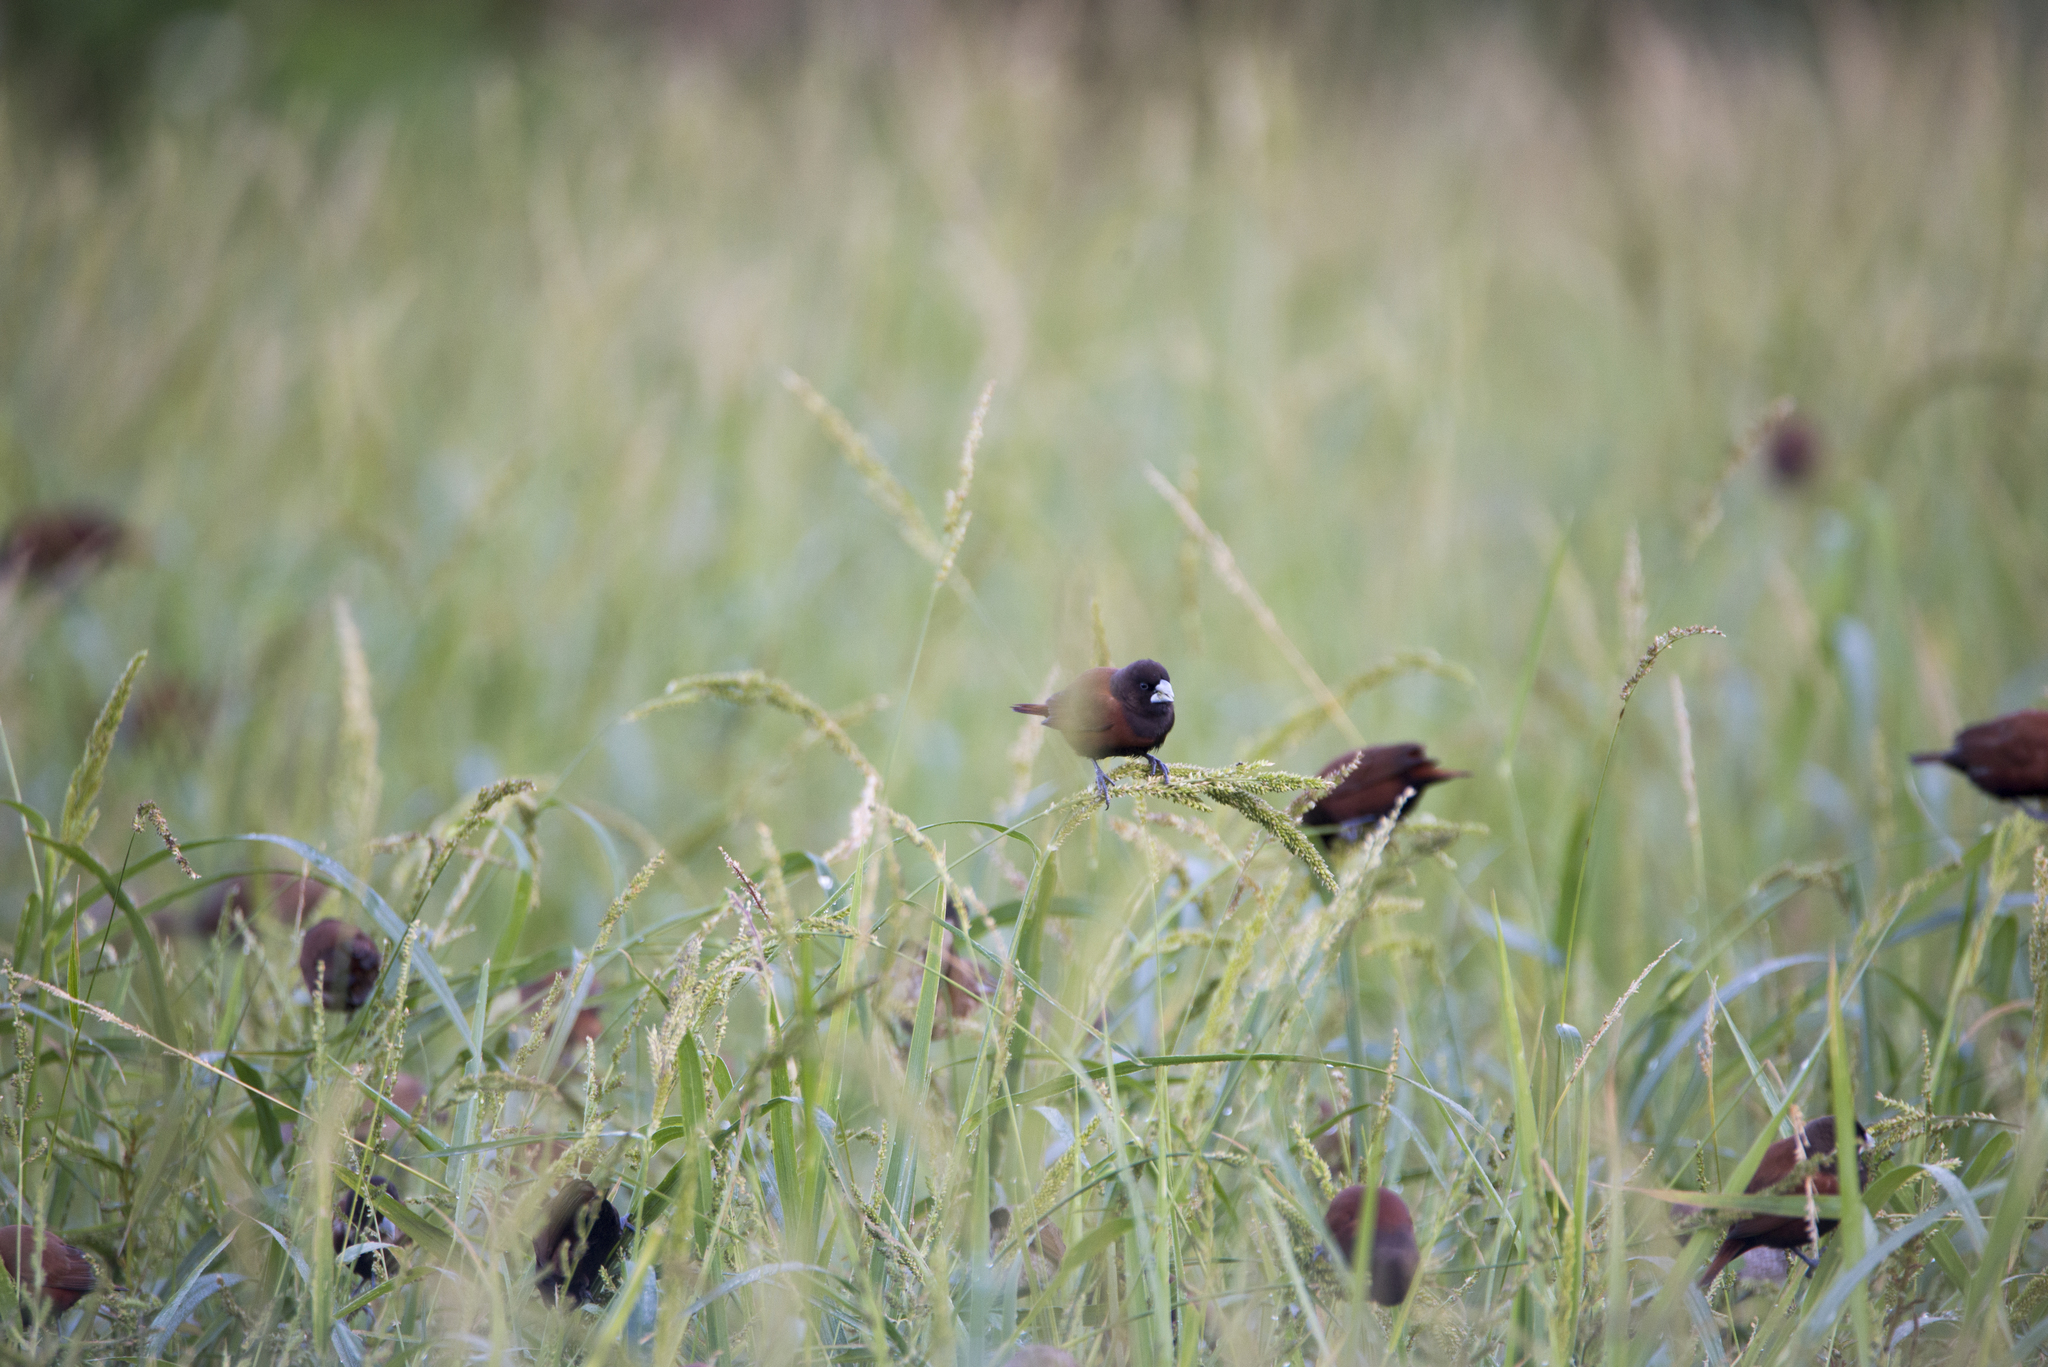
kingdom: Animalia
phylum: Chordata
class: Aves
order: Passeriformes
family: Estrildidae
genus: Lonchura
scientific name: Lonchura atricapilla
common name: Chestnut munia
